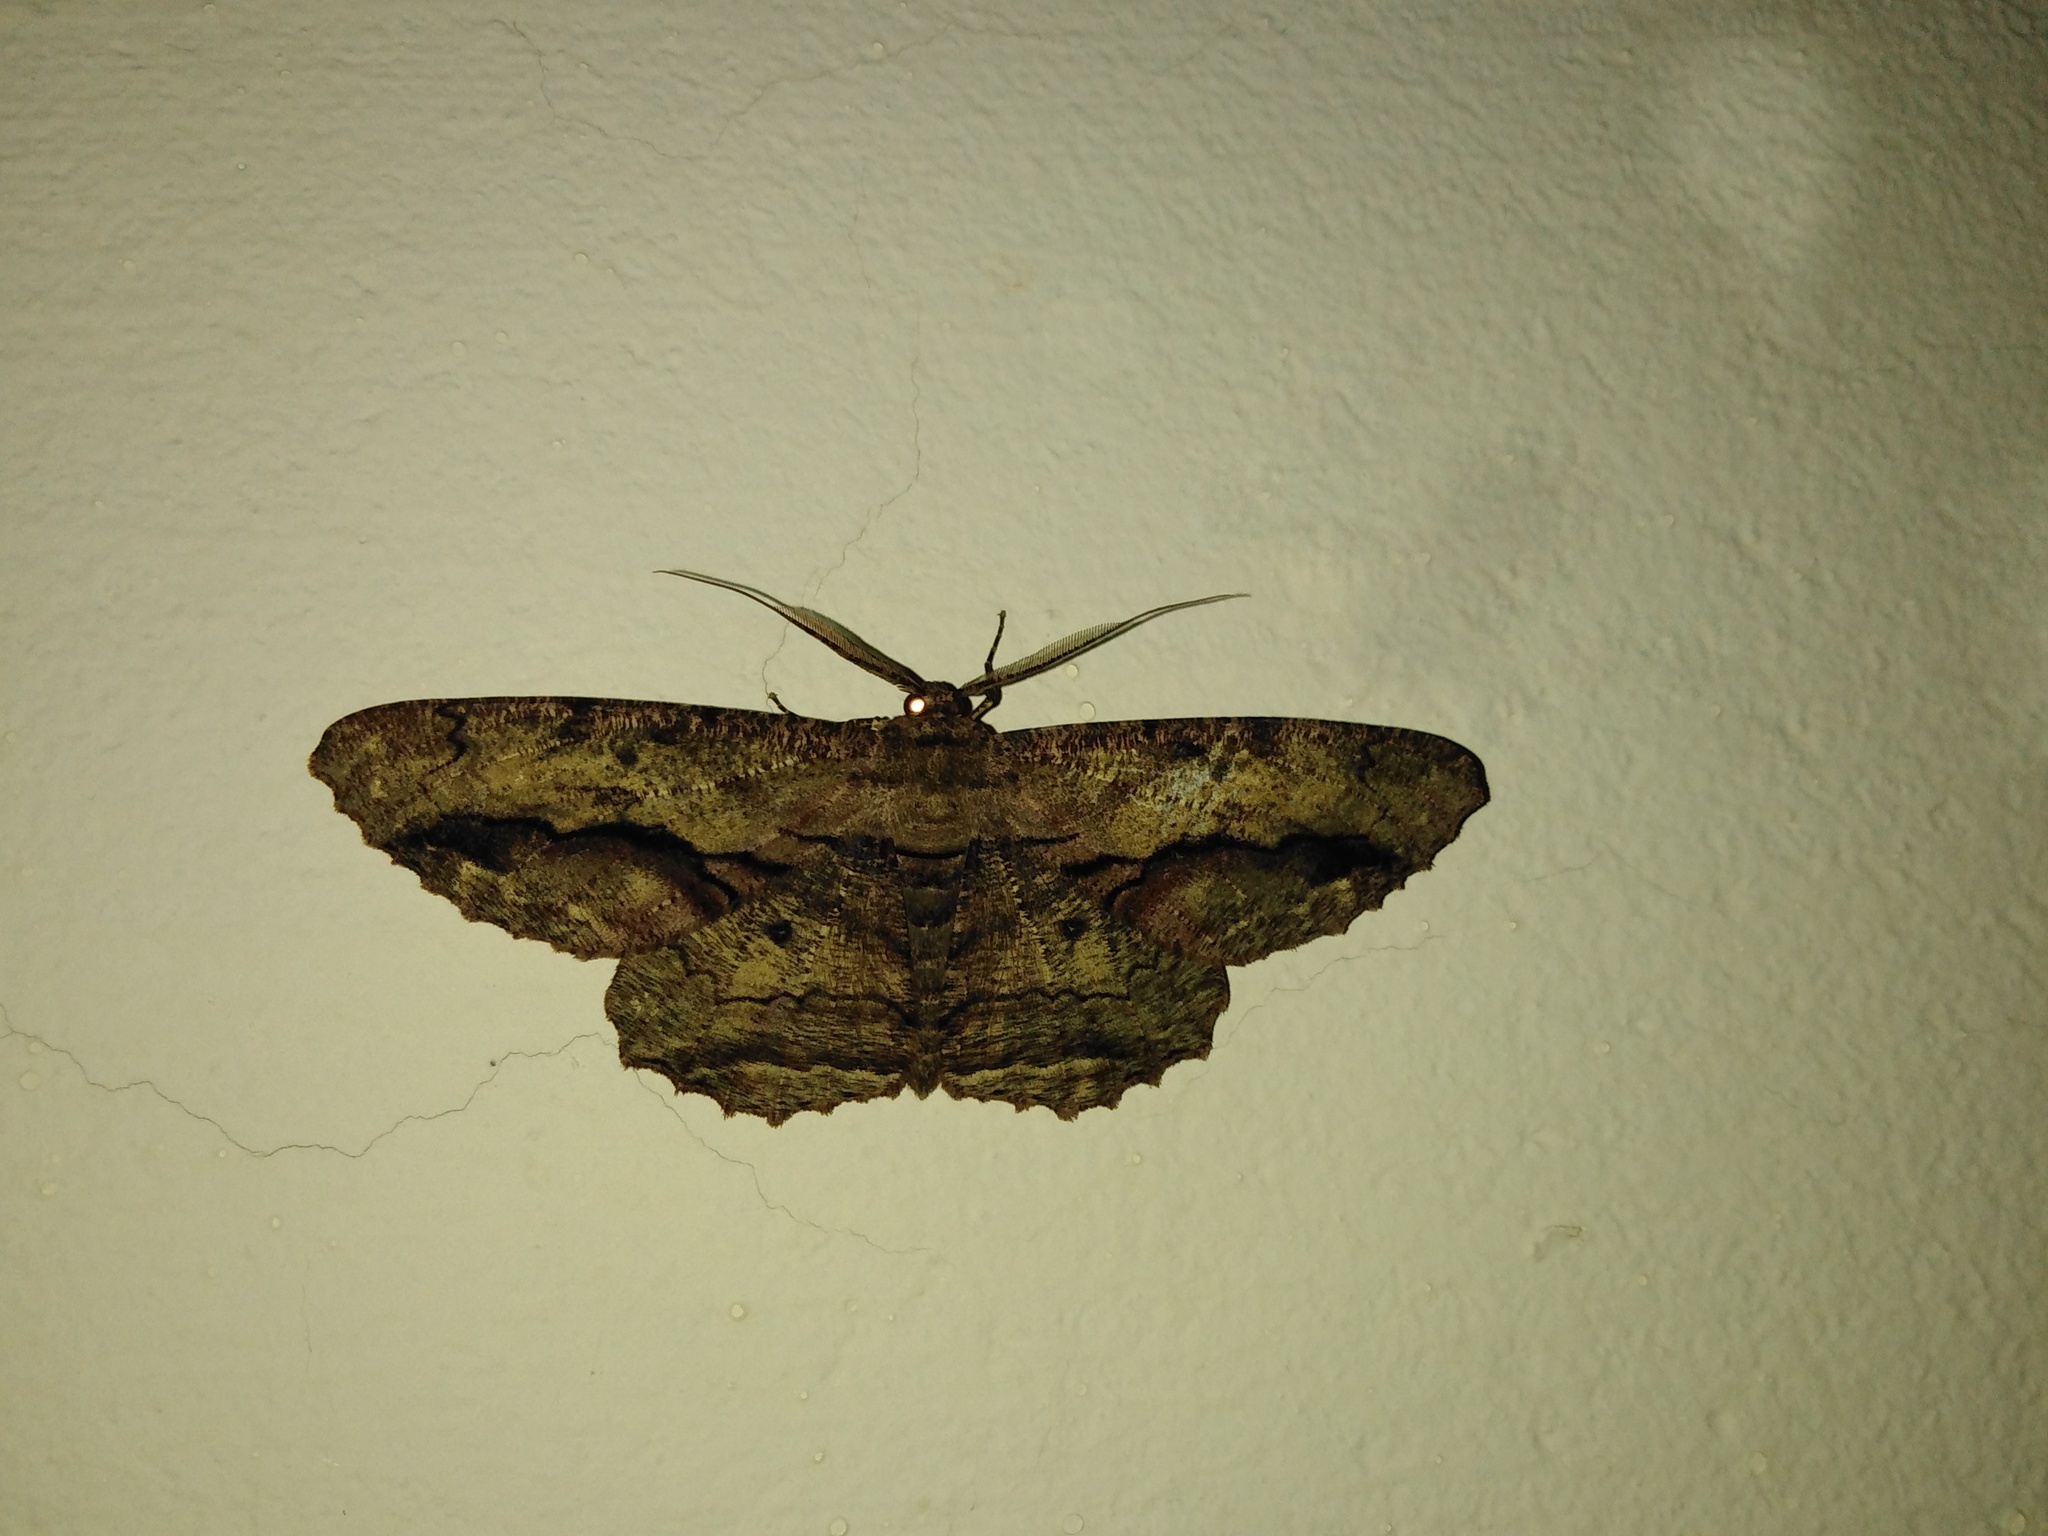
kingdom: Animalia
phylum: Arthropoda
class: Insecta
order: Lepidoptera
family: Geometridae
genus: Chorodna
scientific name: Chorodna strixaria
